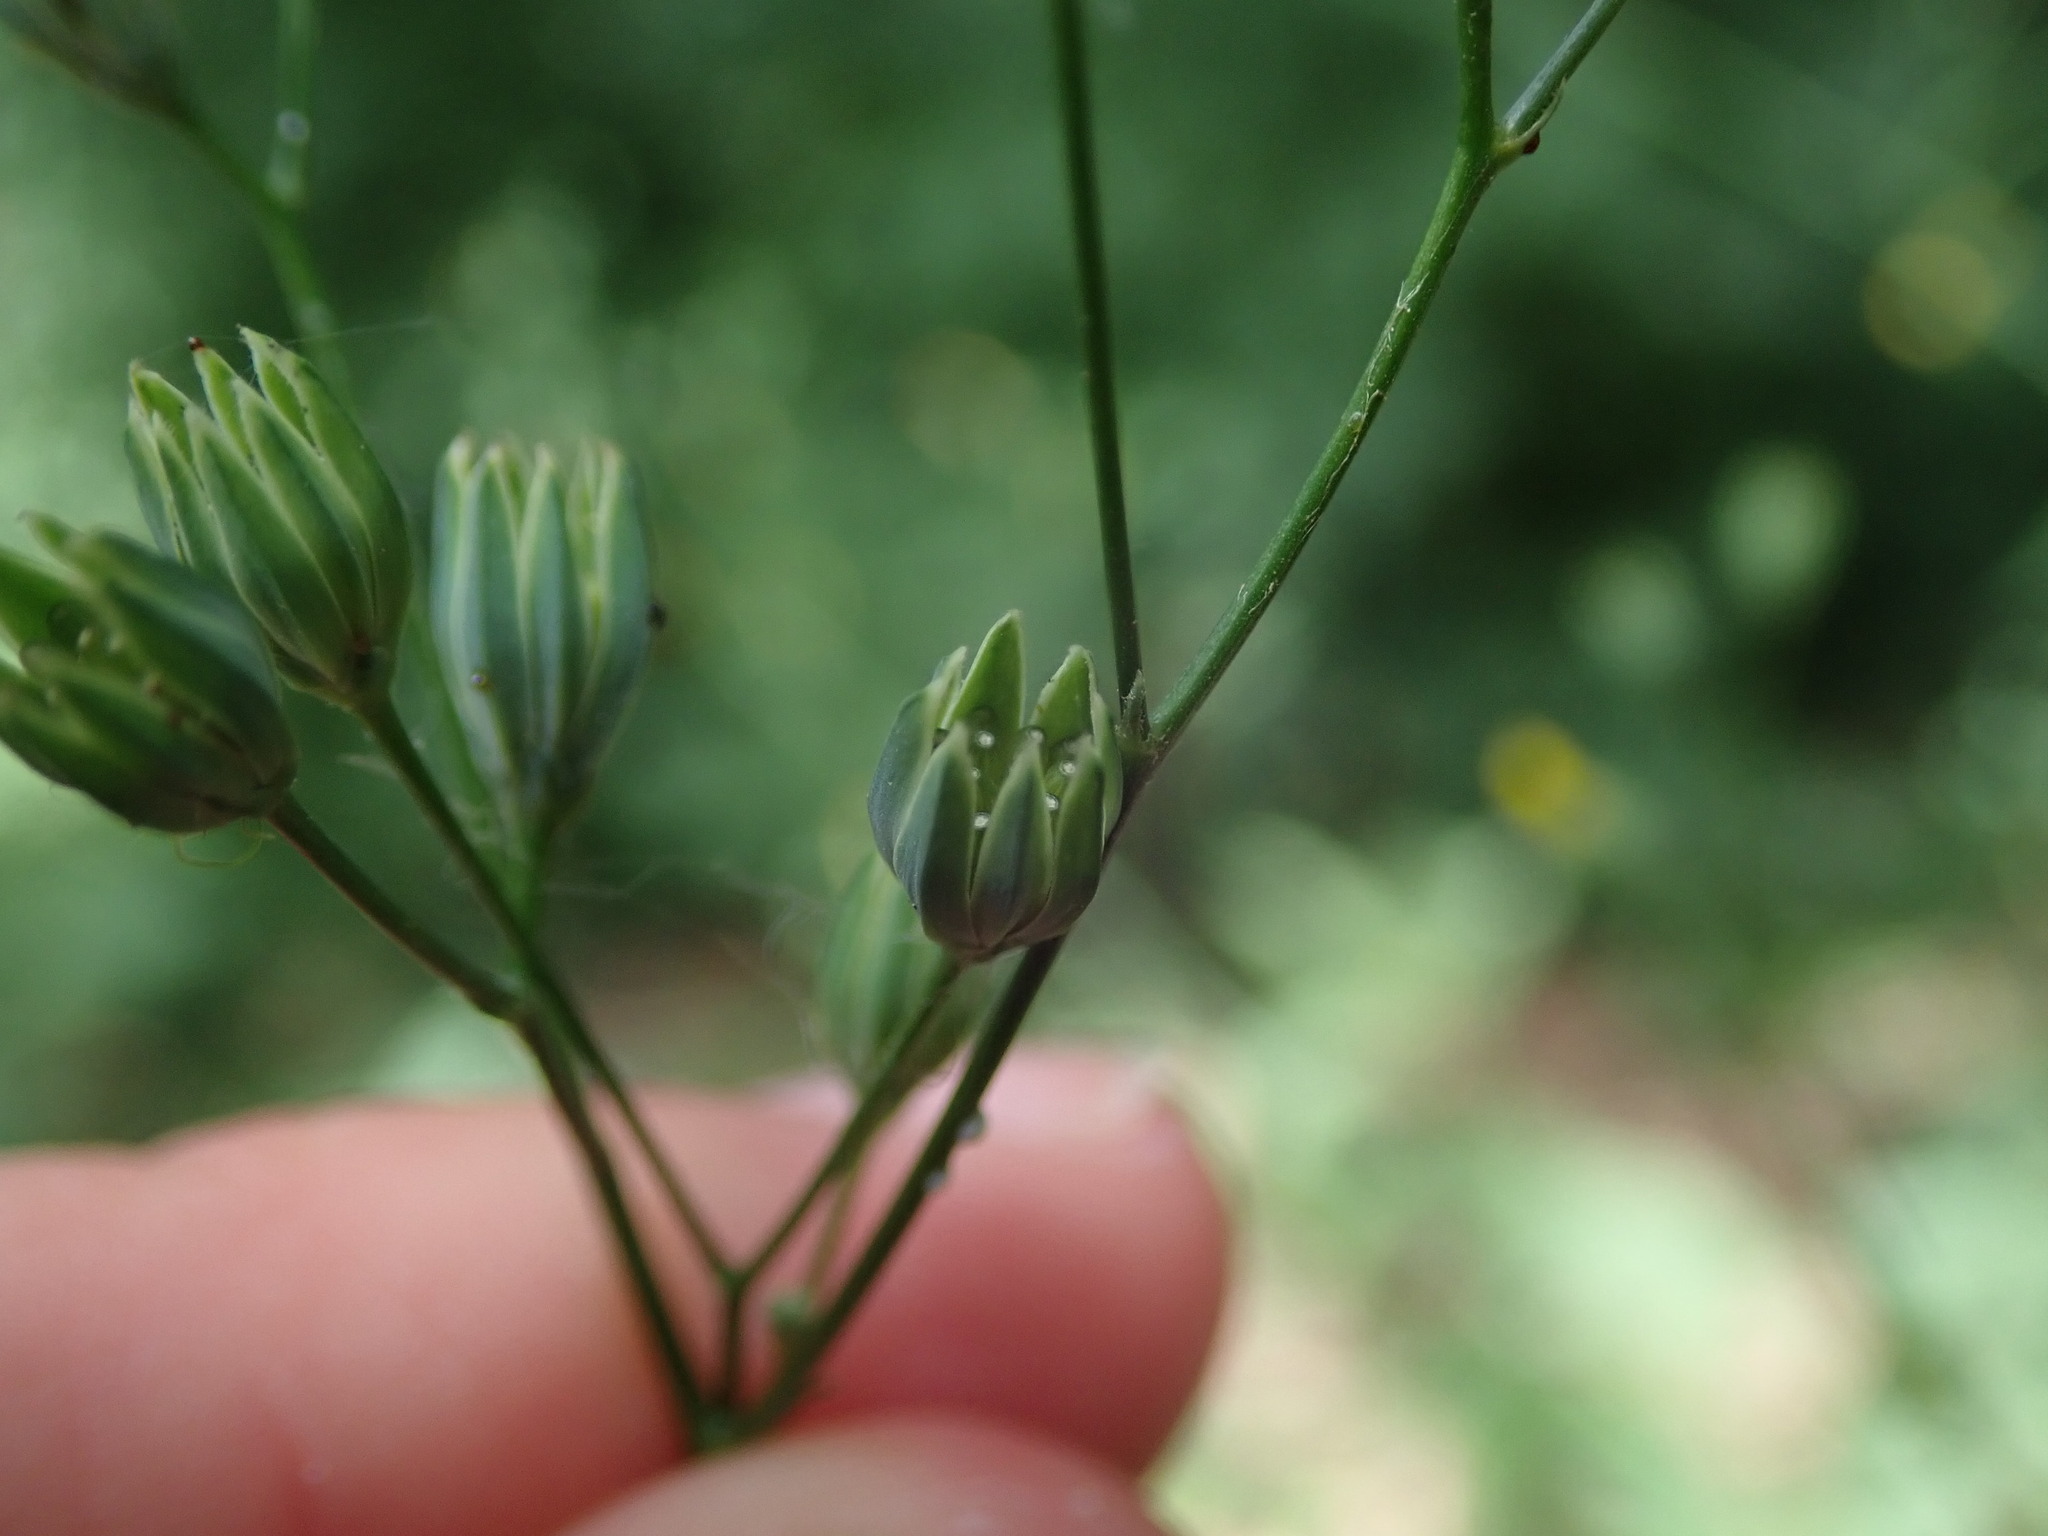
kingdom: Plantae
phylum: Tracheophyta
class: Magnoliopsida
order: Asterales
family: Asteraceae
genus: Lapsana
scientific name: Lapsana communis
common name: Nipplewort
